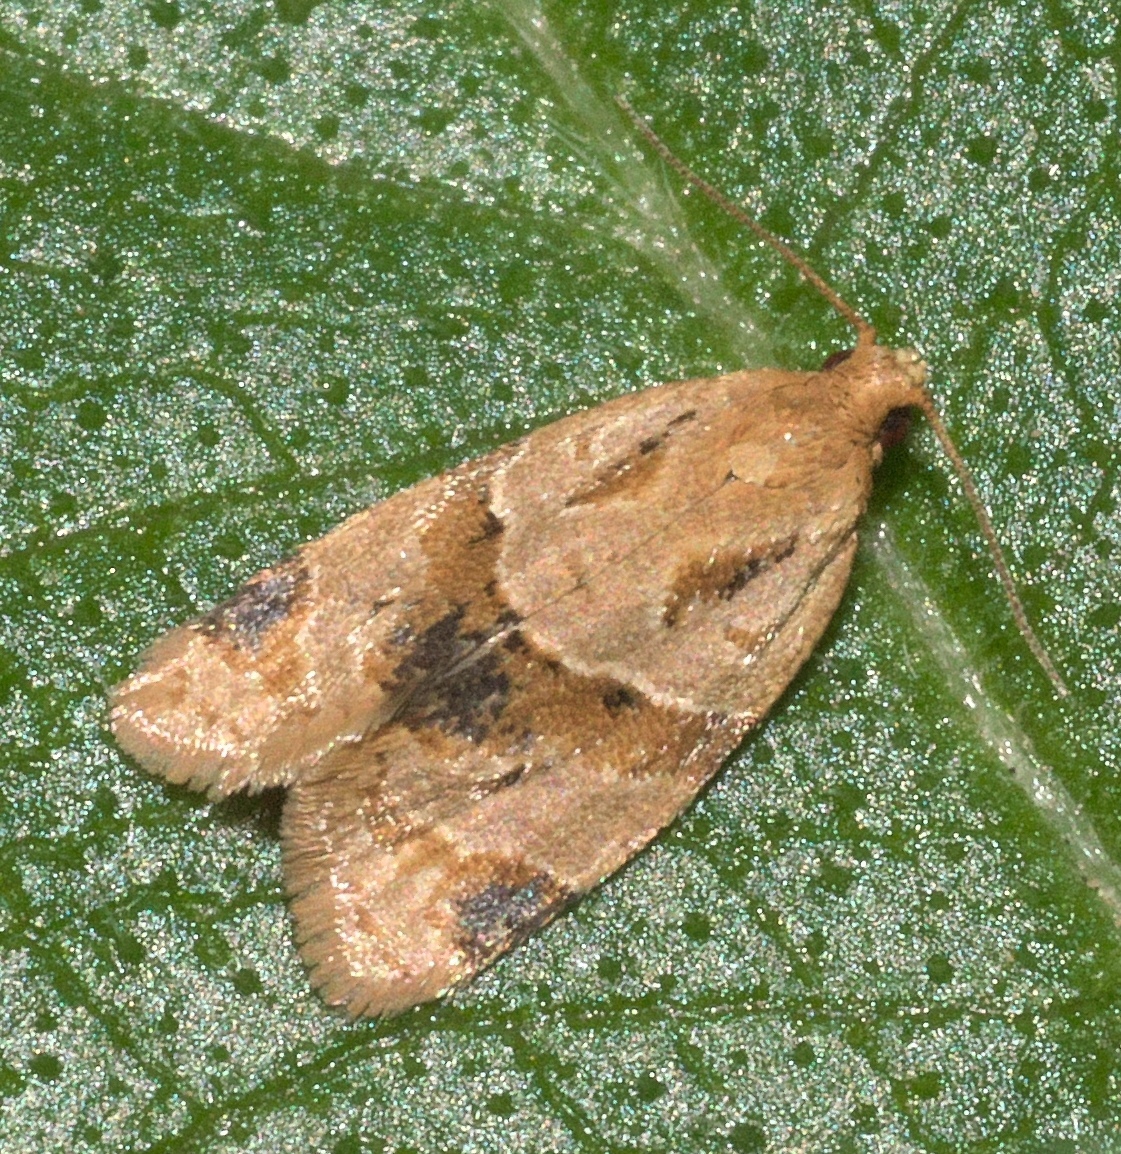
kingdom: Animalia
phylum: Arthropoda
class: Insecta
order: Lepidoptera
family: Tortricidae
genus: Clepsis
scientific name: Clepsis peritana
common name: Garden tortrix
